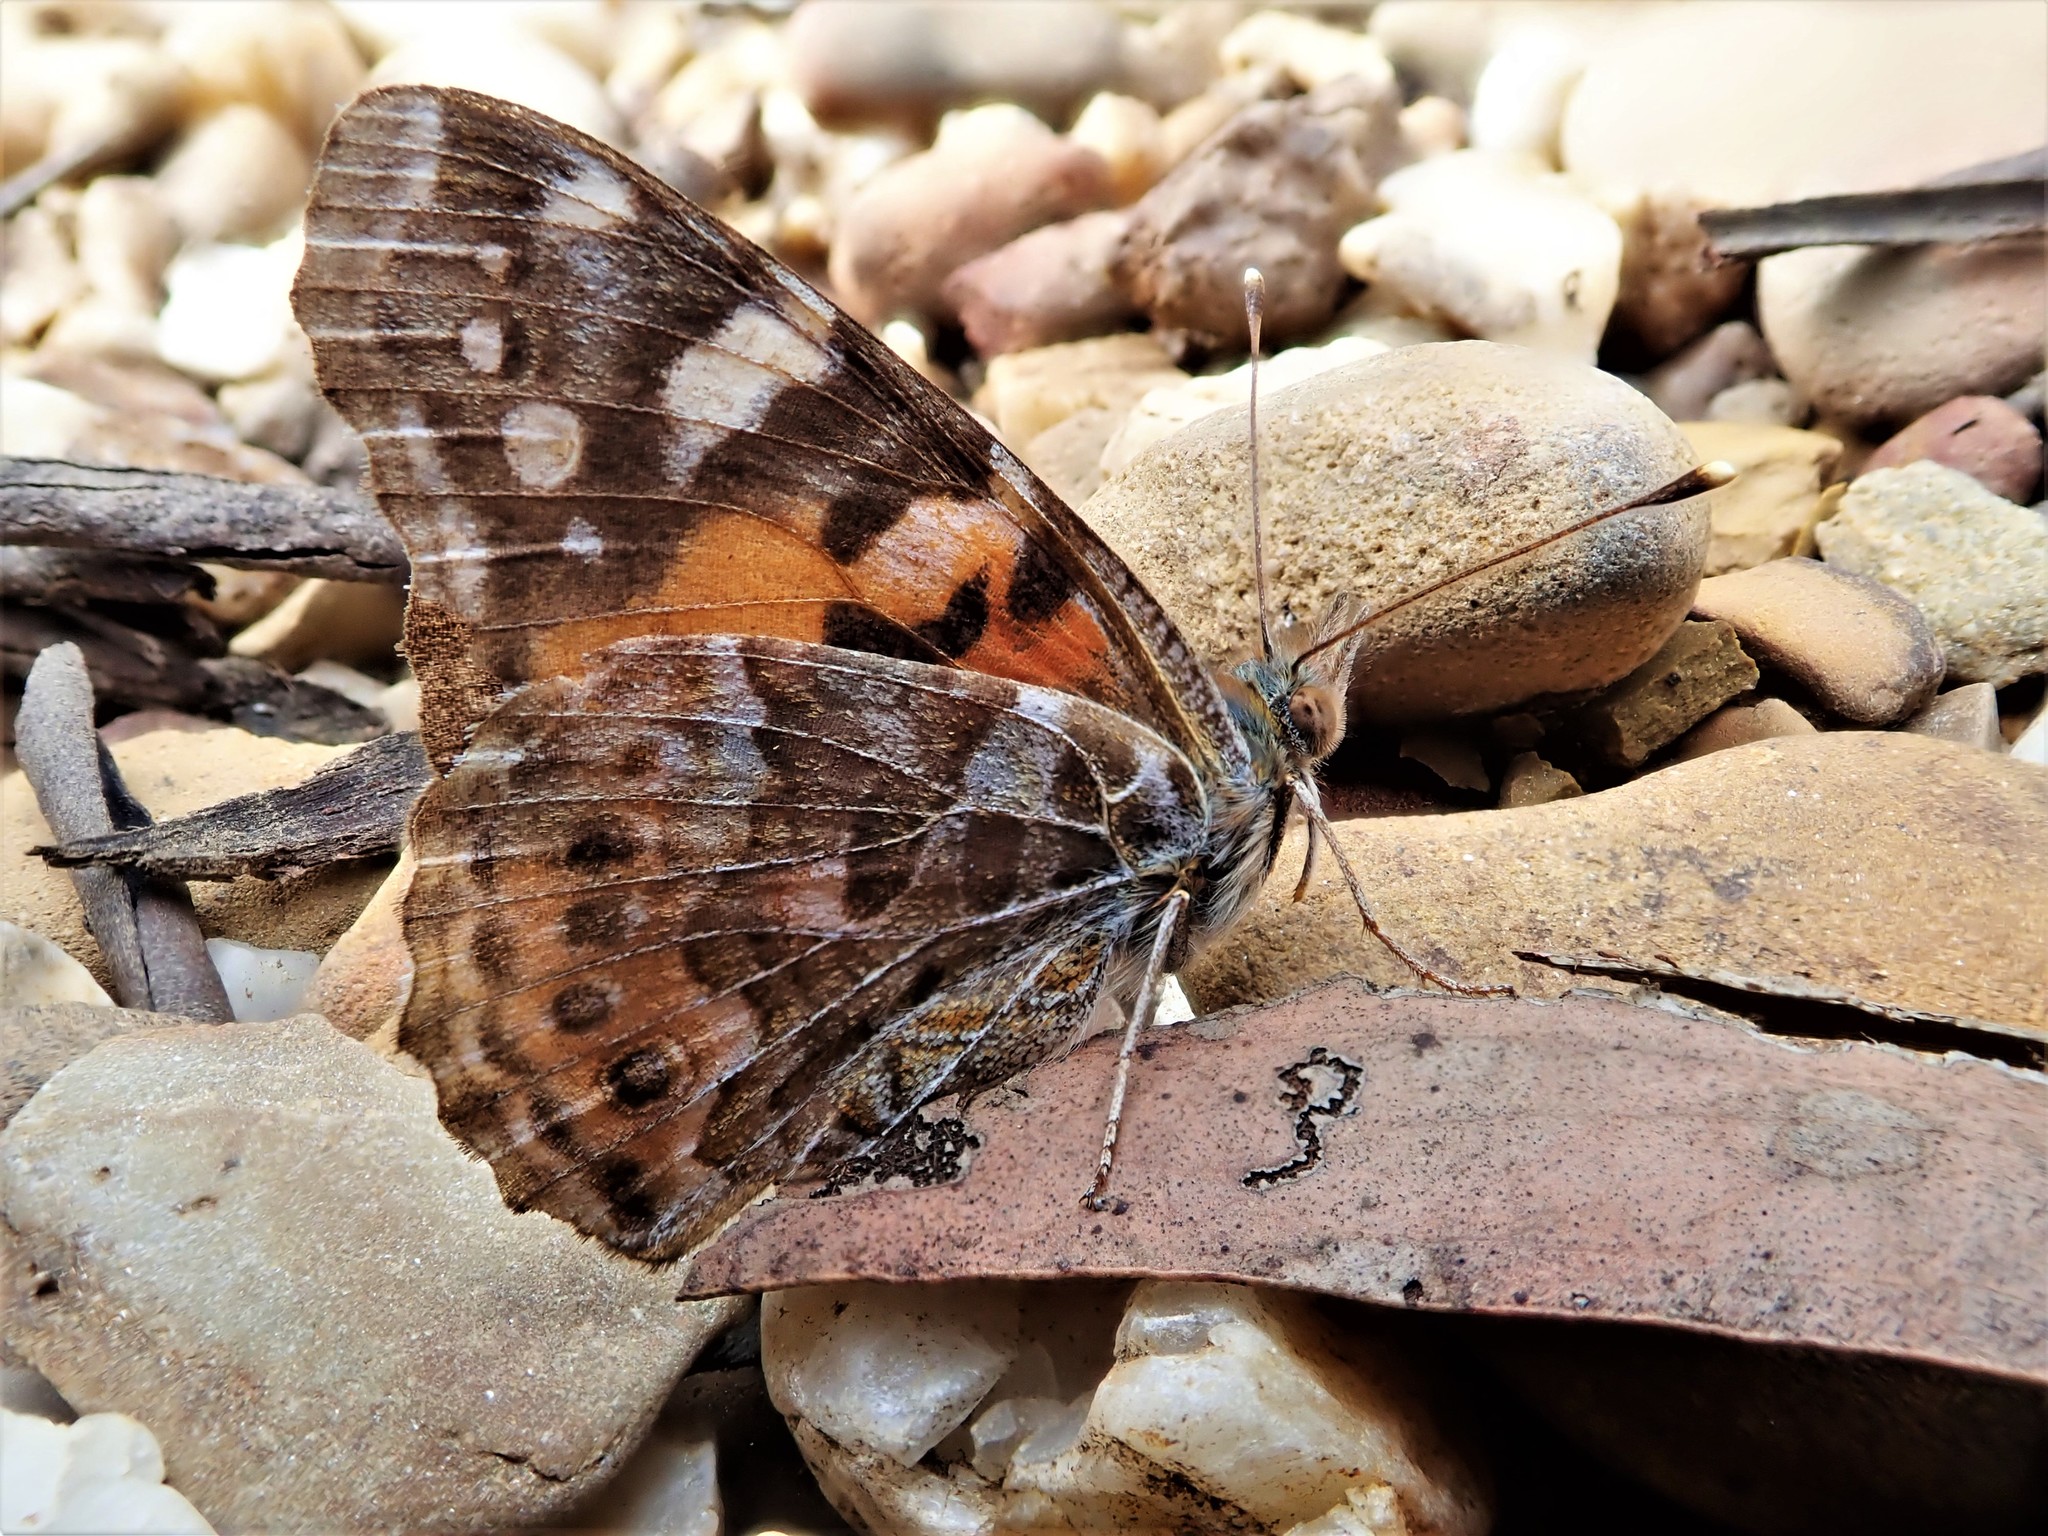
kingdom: Animalia
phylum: Arthropoda
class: Insecta
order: Lepidoptera
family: Nymphalidae
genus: Vanessa
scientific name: Vanessa kershawi
